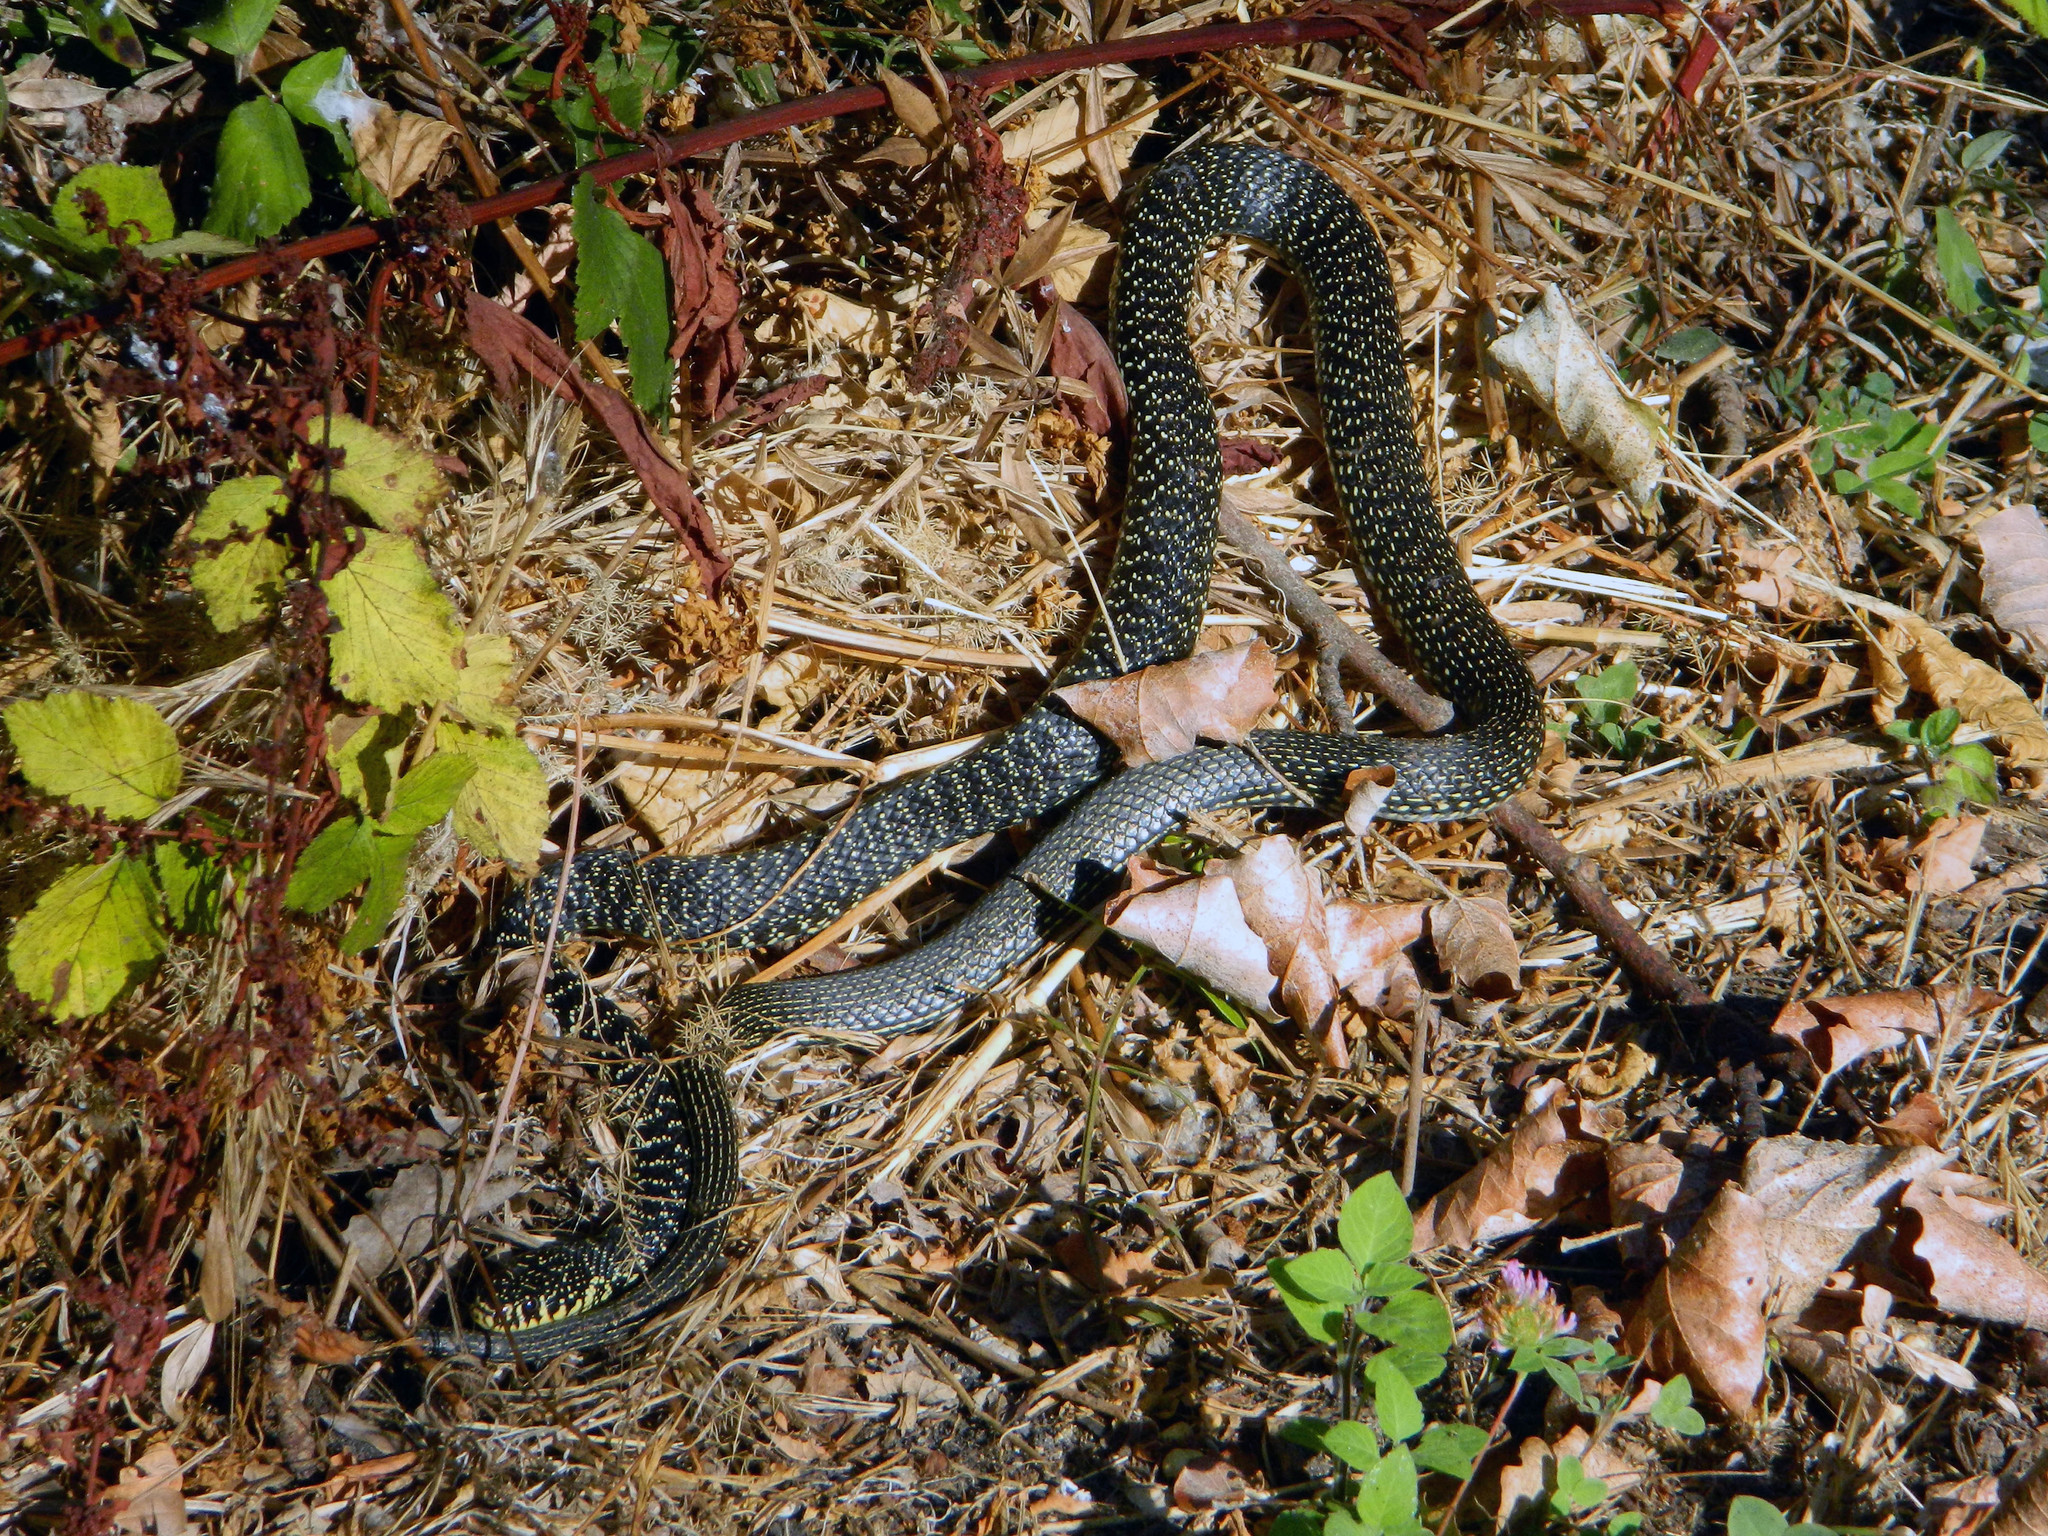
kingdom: Animalia
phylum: Chordata
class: Squamata
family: Colubridae
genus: Hierophis
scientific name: Hierophis viridiflavus
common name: Green whip snake
